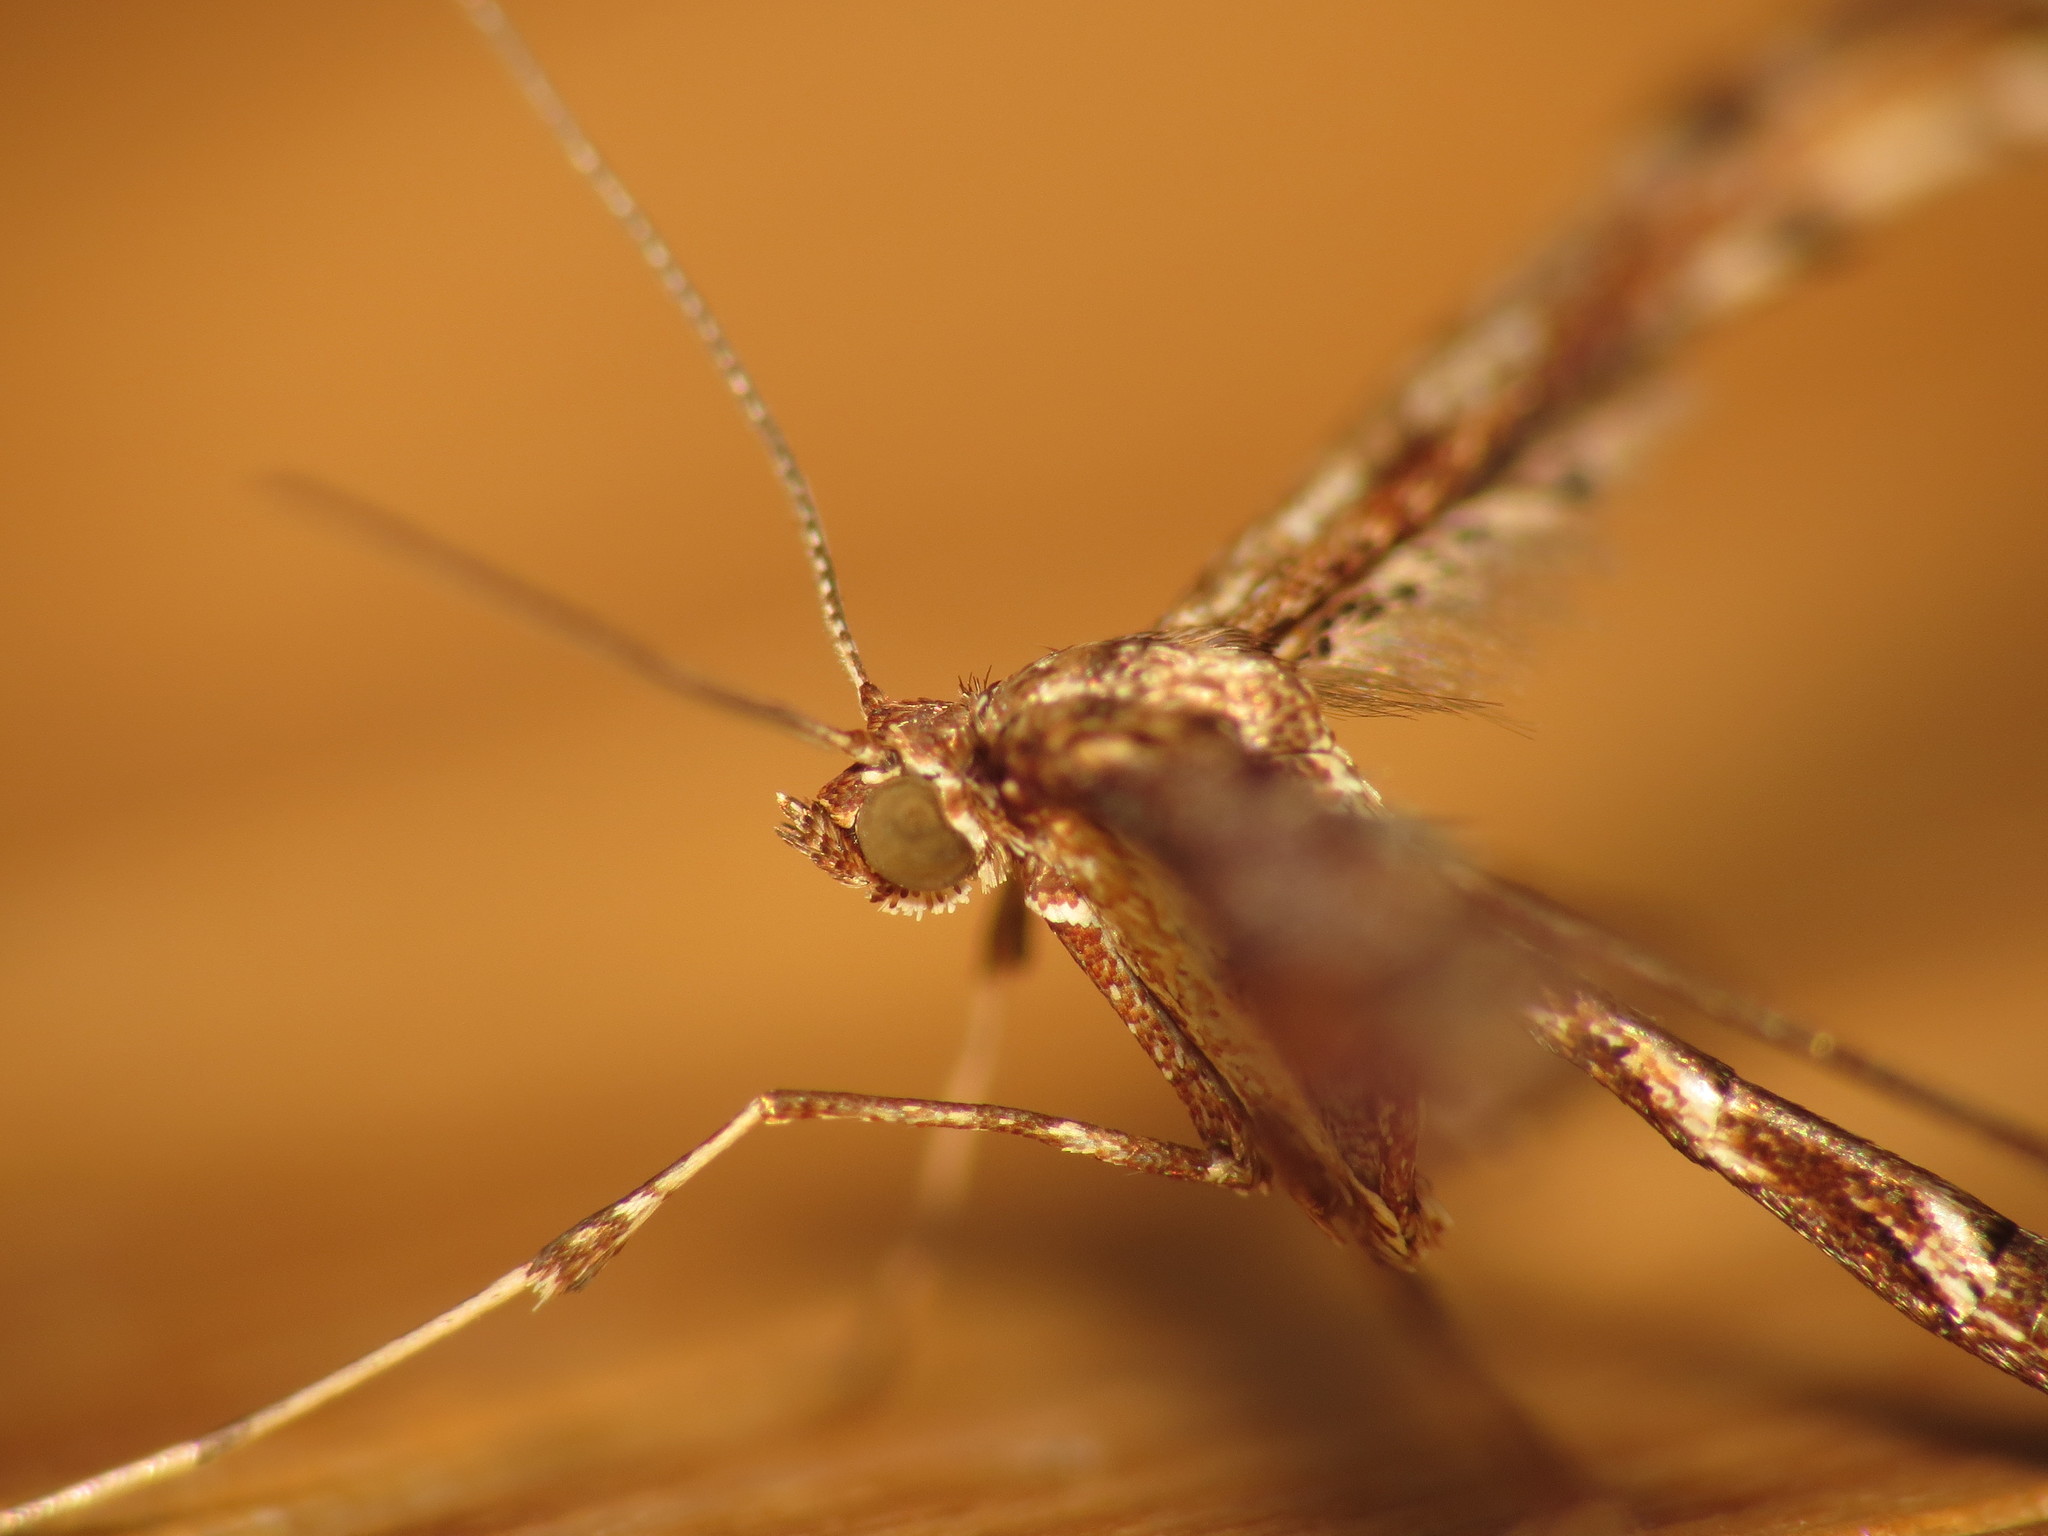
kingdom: Animalia
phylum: Arthropoda
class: Insecta
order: Lepidoptera
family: Pterophoridae
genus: Amblyptilia
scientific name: Amblyptilia acanthadactyla
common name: Beautiful plume
